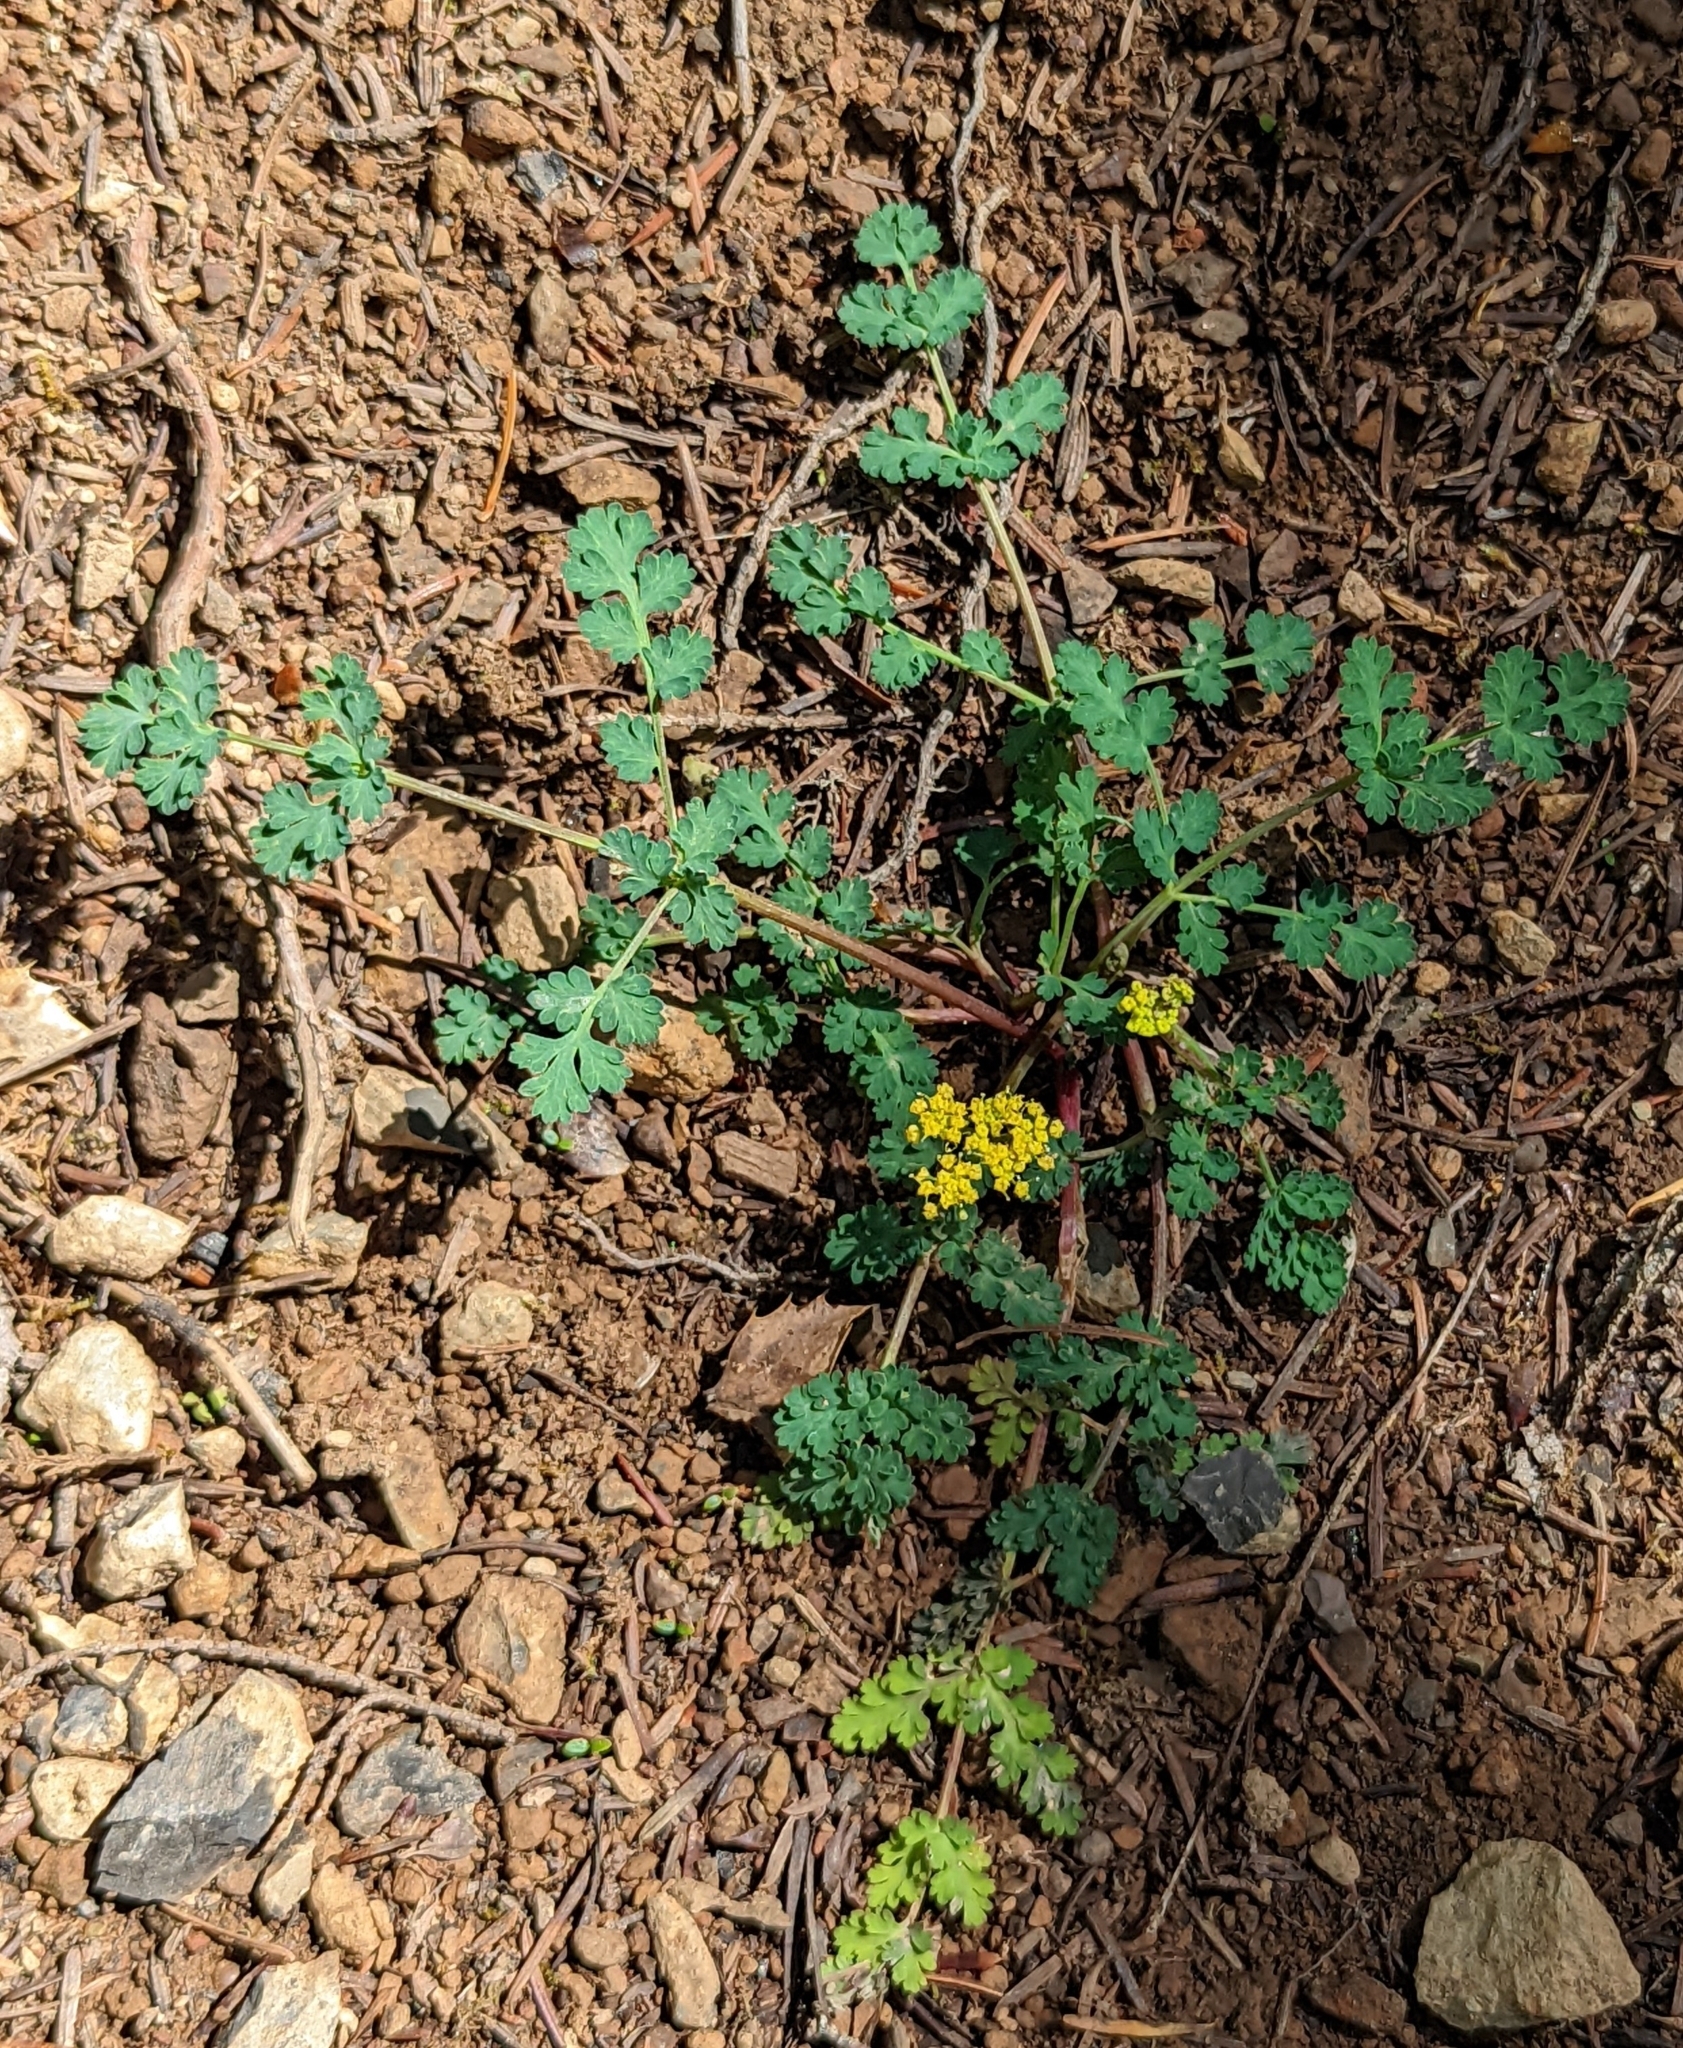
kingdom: Plantae
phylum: Tracheophyta
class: Magnoliopsida
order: Apiales
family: Apiaceae
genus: Lomatium
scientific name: Lomatium martindalei
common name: Cascade desert-parsley
